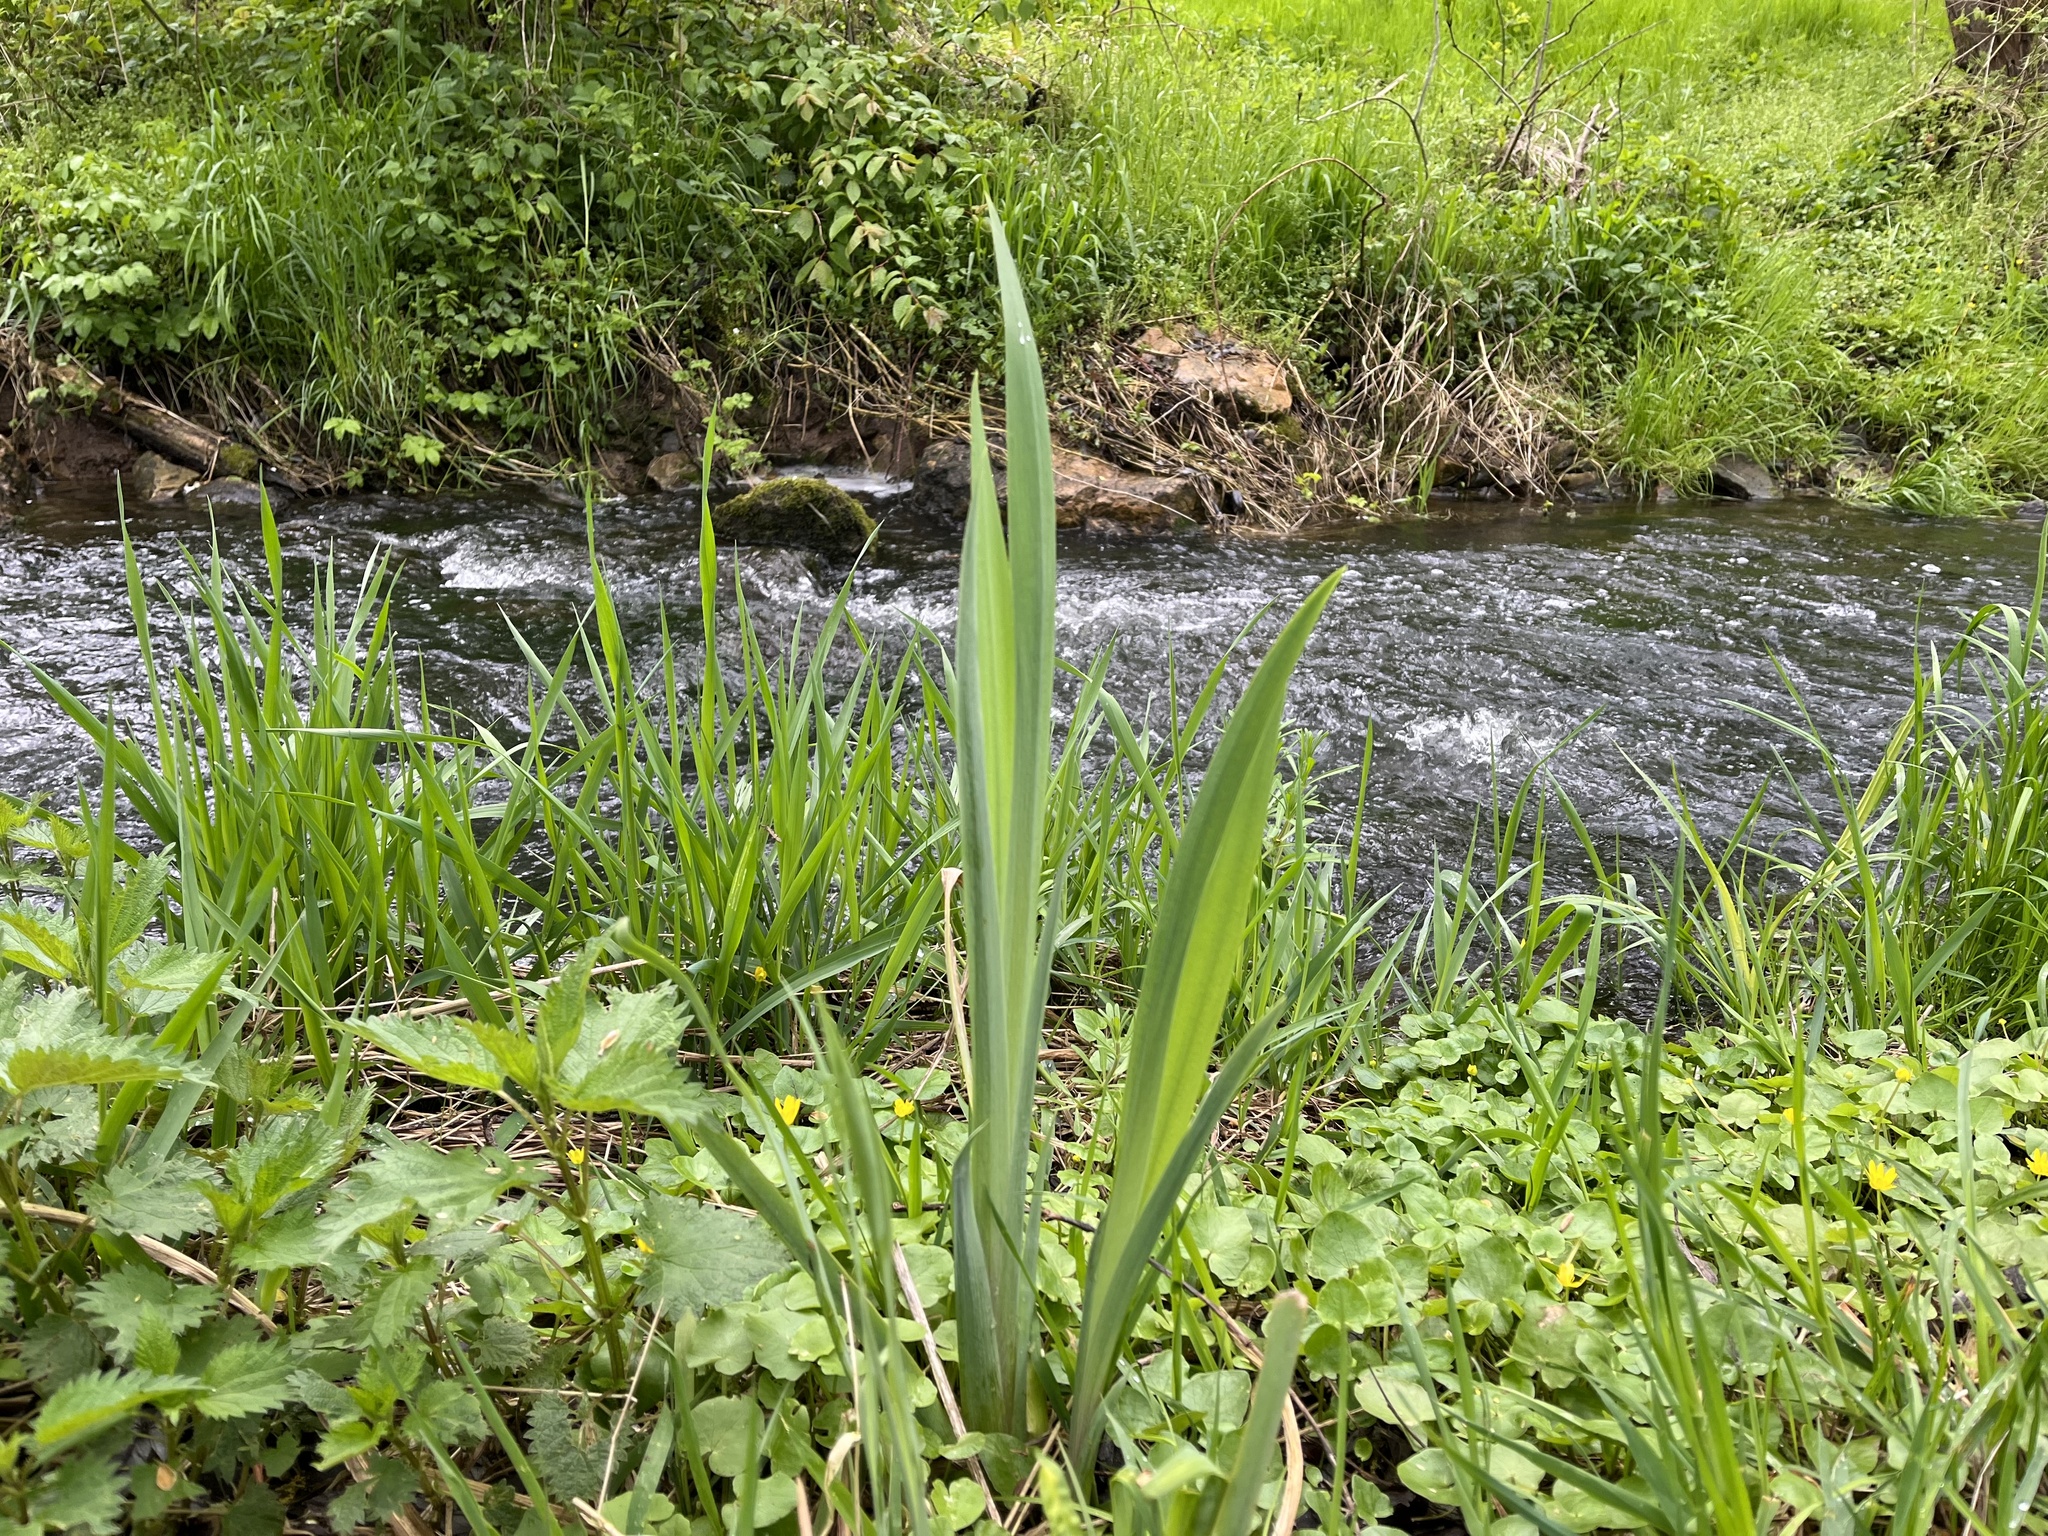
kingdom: Plantae
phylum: Tracheophyta
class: Liliopsida
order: Asparagales
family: Iridaceae
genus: Iris
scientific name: Iris pseudacorus
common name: Yellow flag
